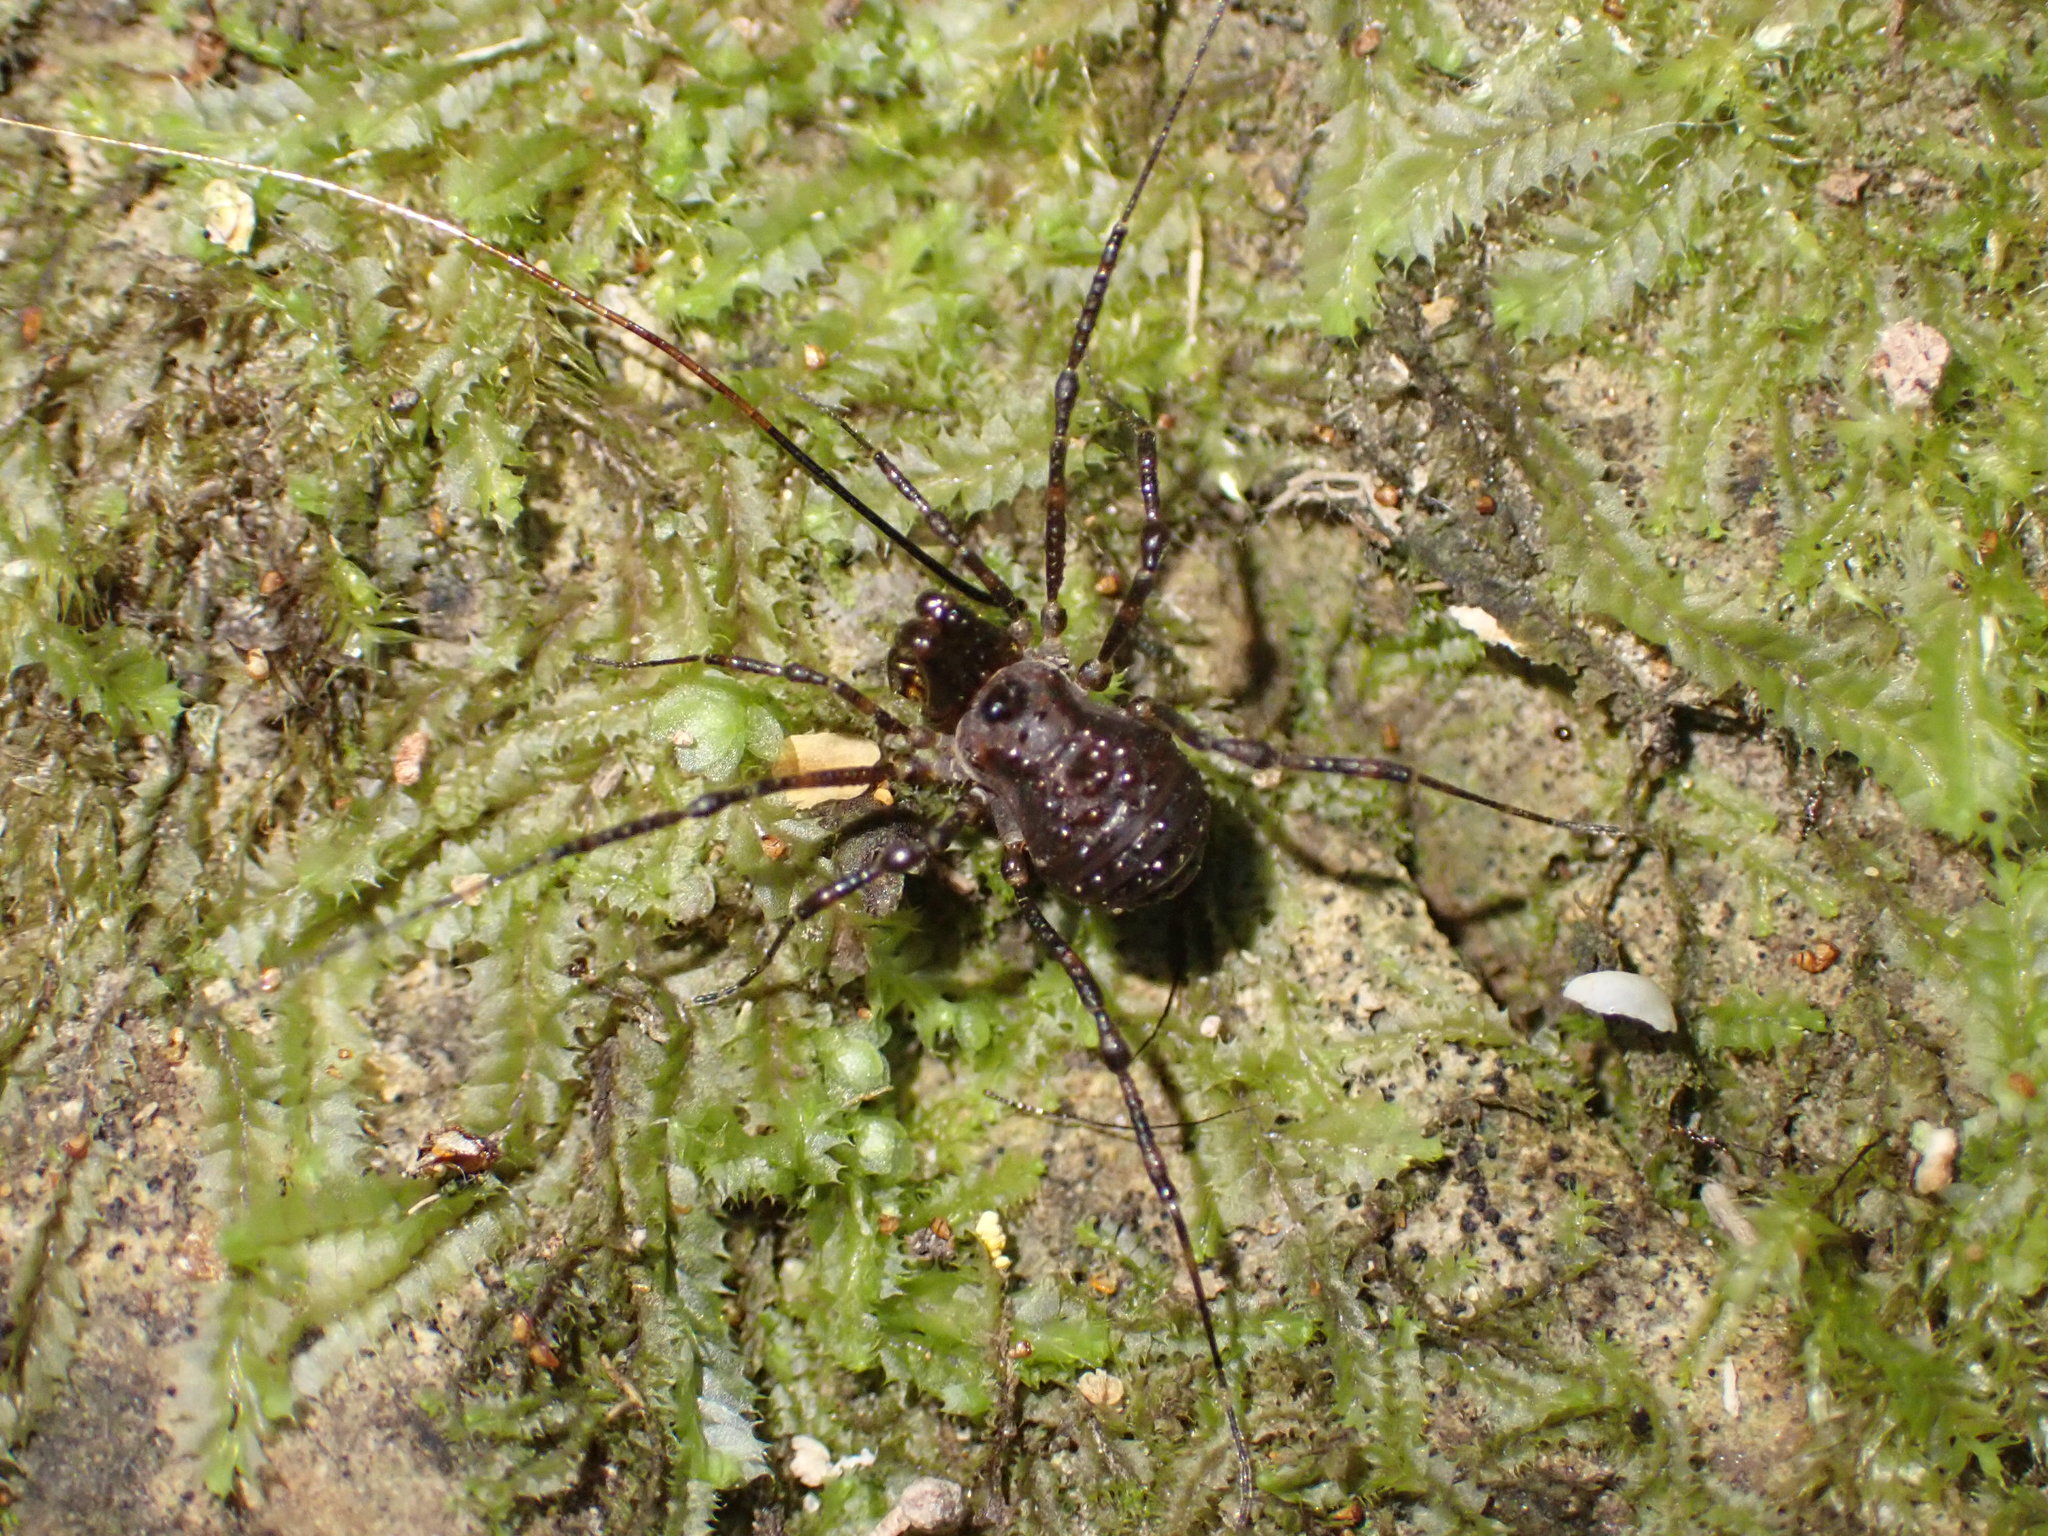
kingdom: Animalia
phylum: Arthropoda
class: Arachnida
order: Opiliones
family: Triaenonychidae
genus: Hendea
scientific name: Hendea myersi
